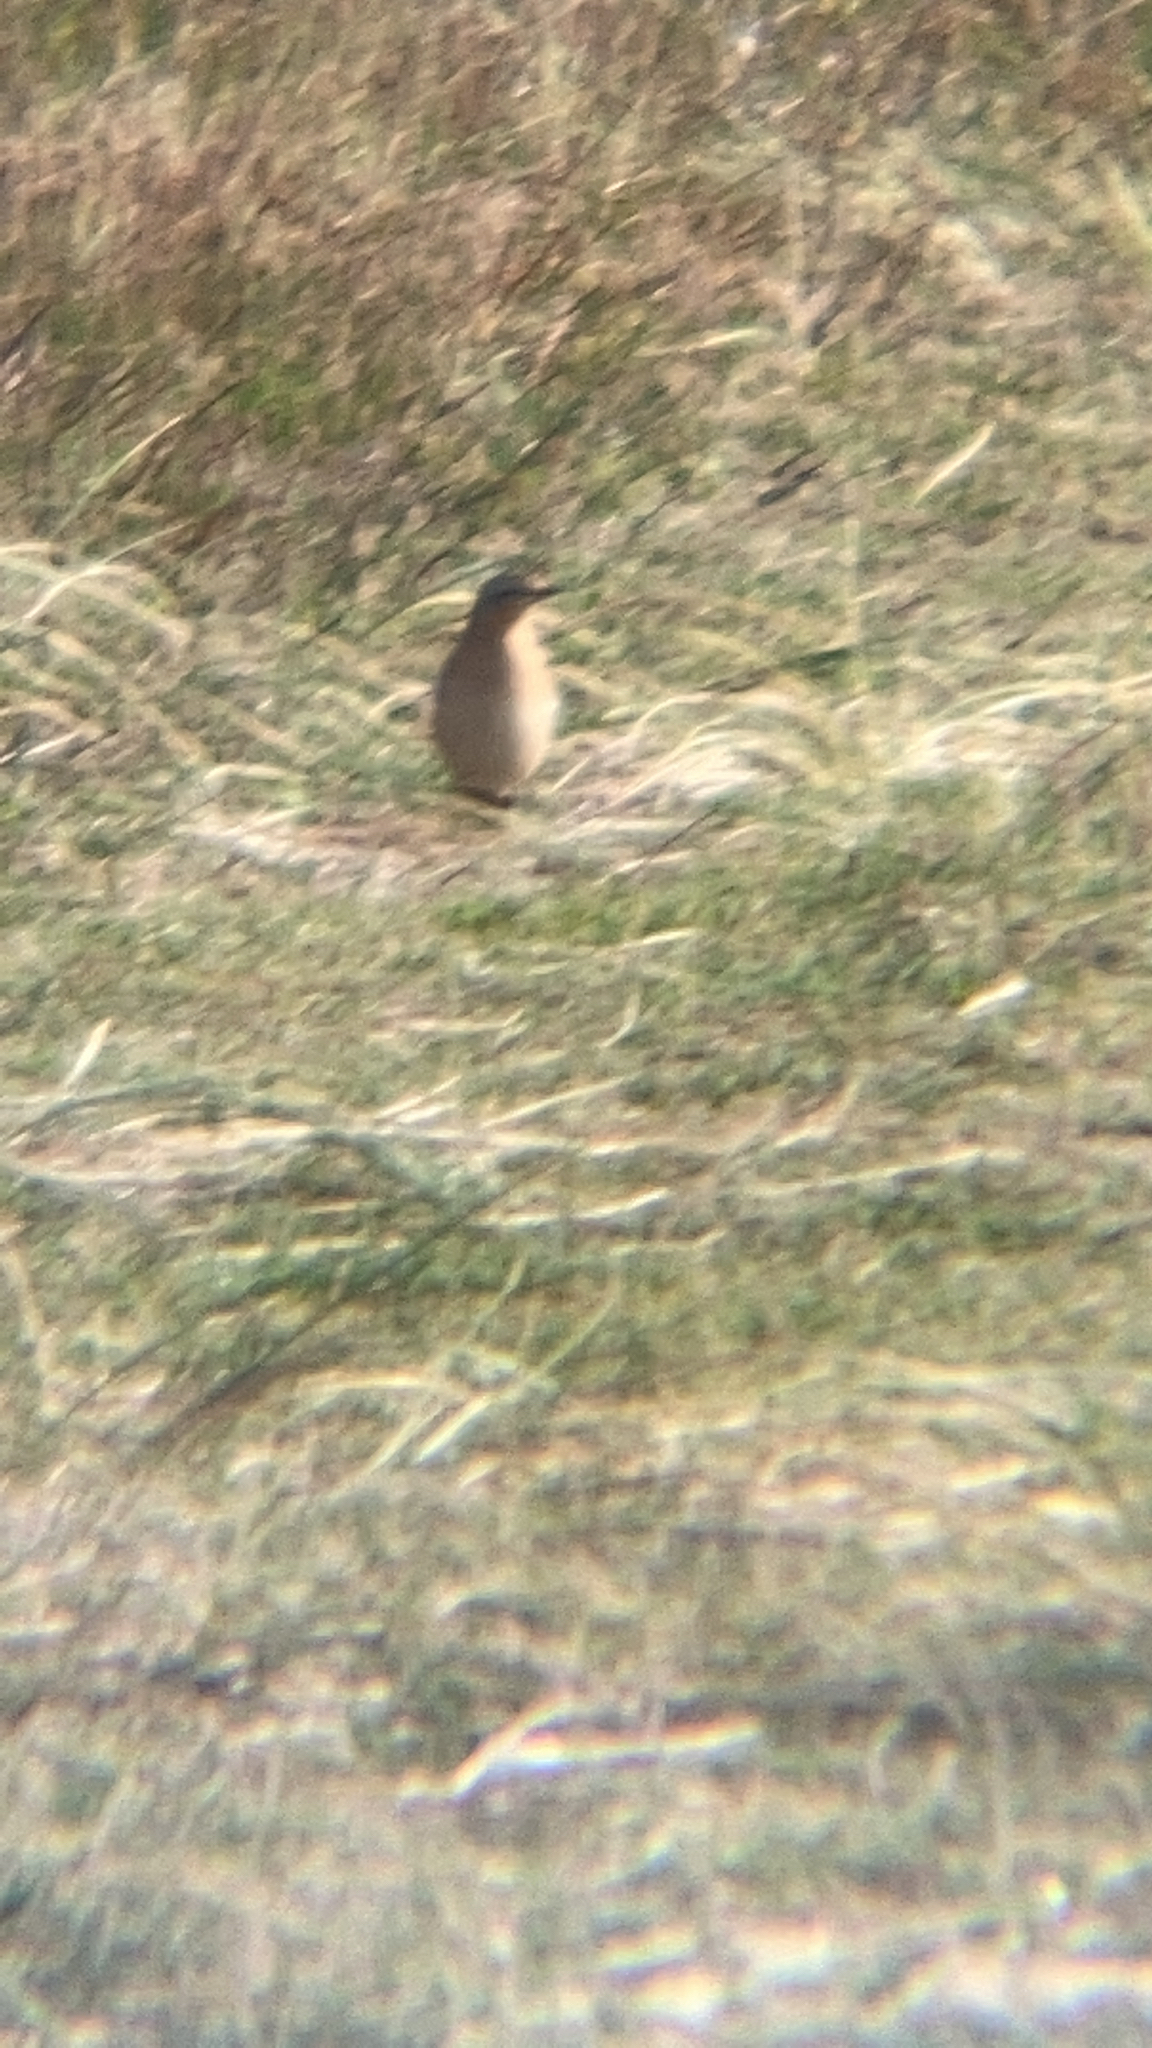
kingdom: Animalia
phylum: Chordata
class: Aves
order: Passeriformes
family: Muscicapidae
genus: Oenanthe
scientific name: Oenanthe oenanthe
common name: Northern wheatear
